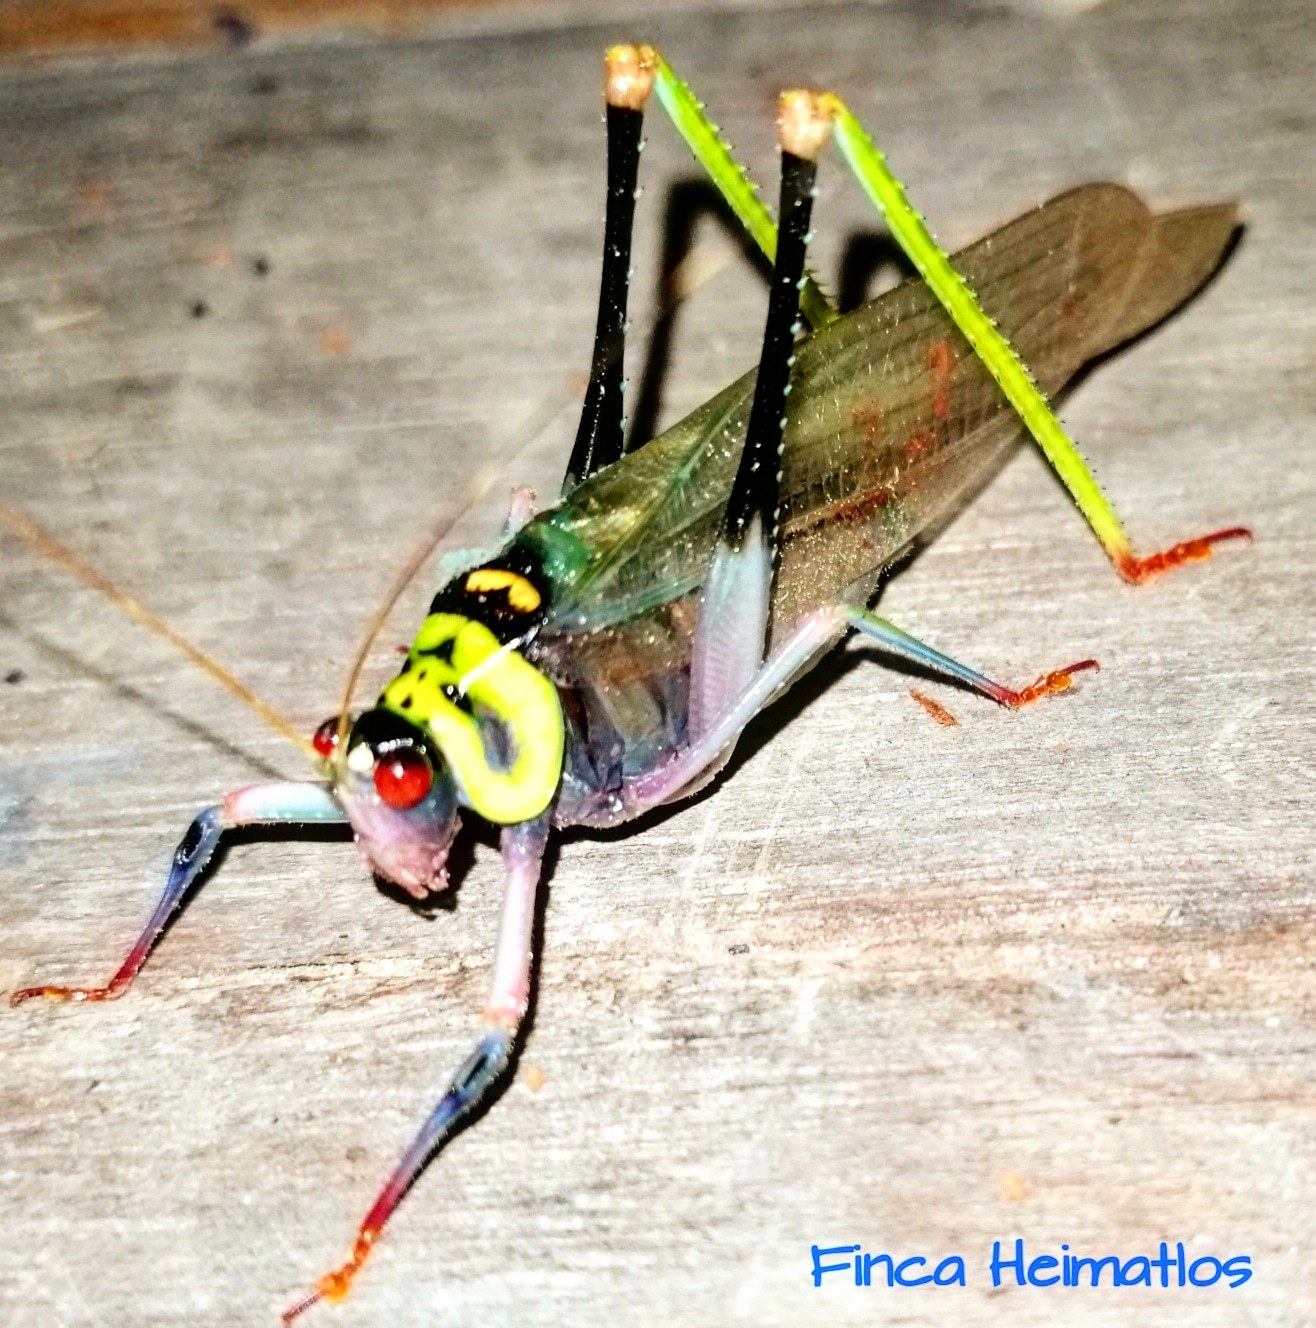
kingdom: Animalia
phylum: Arthropoda
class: Insecta
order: Orthoptera
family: Tettigoniidae
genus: Euceraia
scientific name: Euceraia insignis
